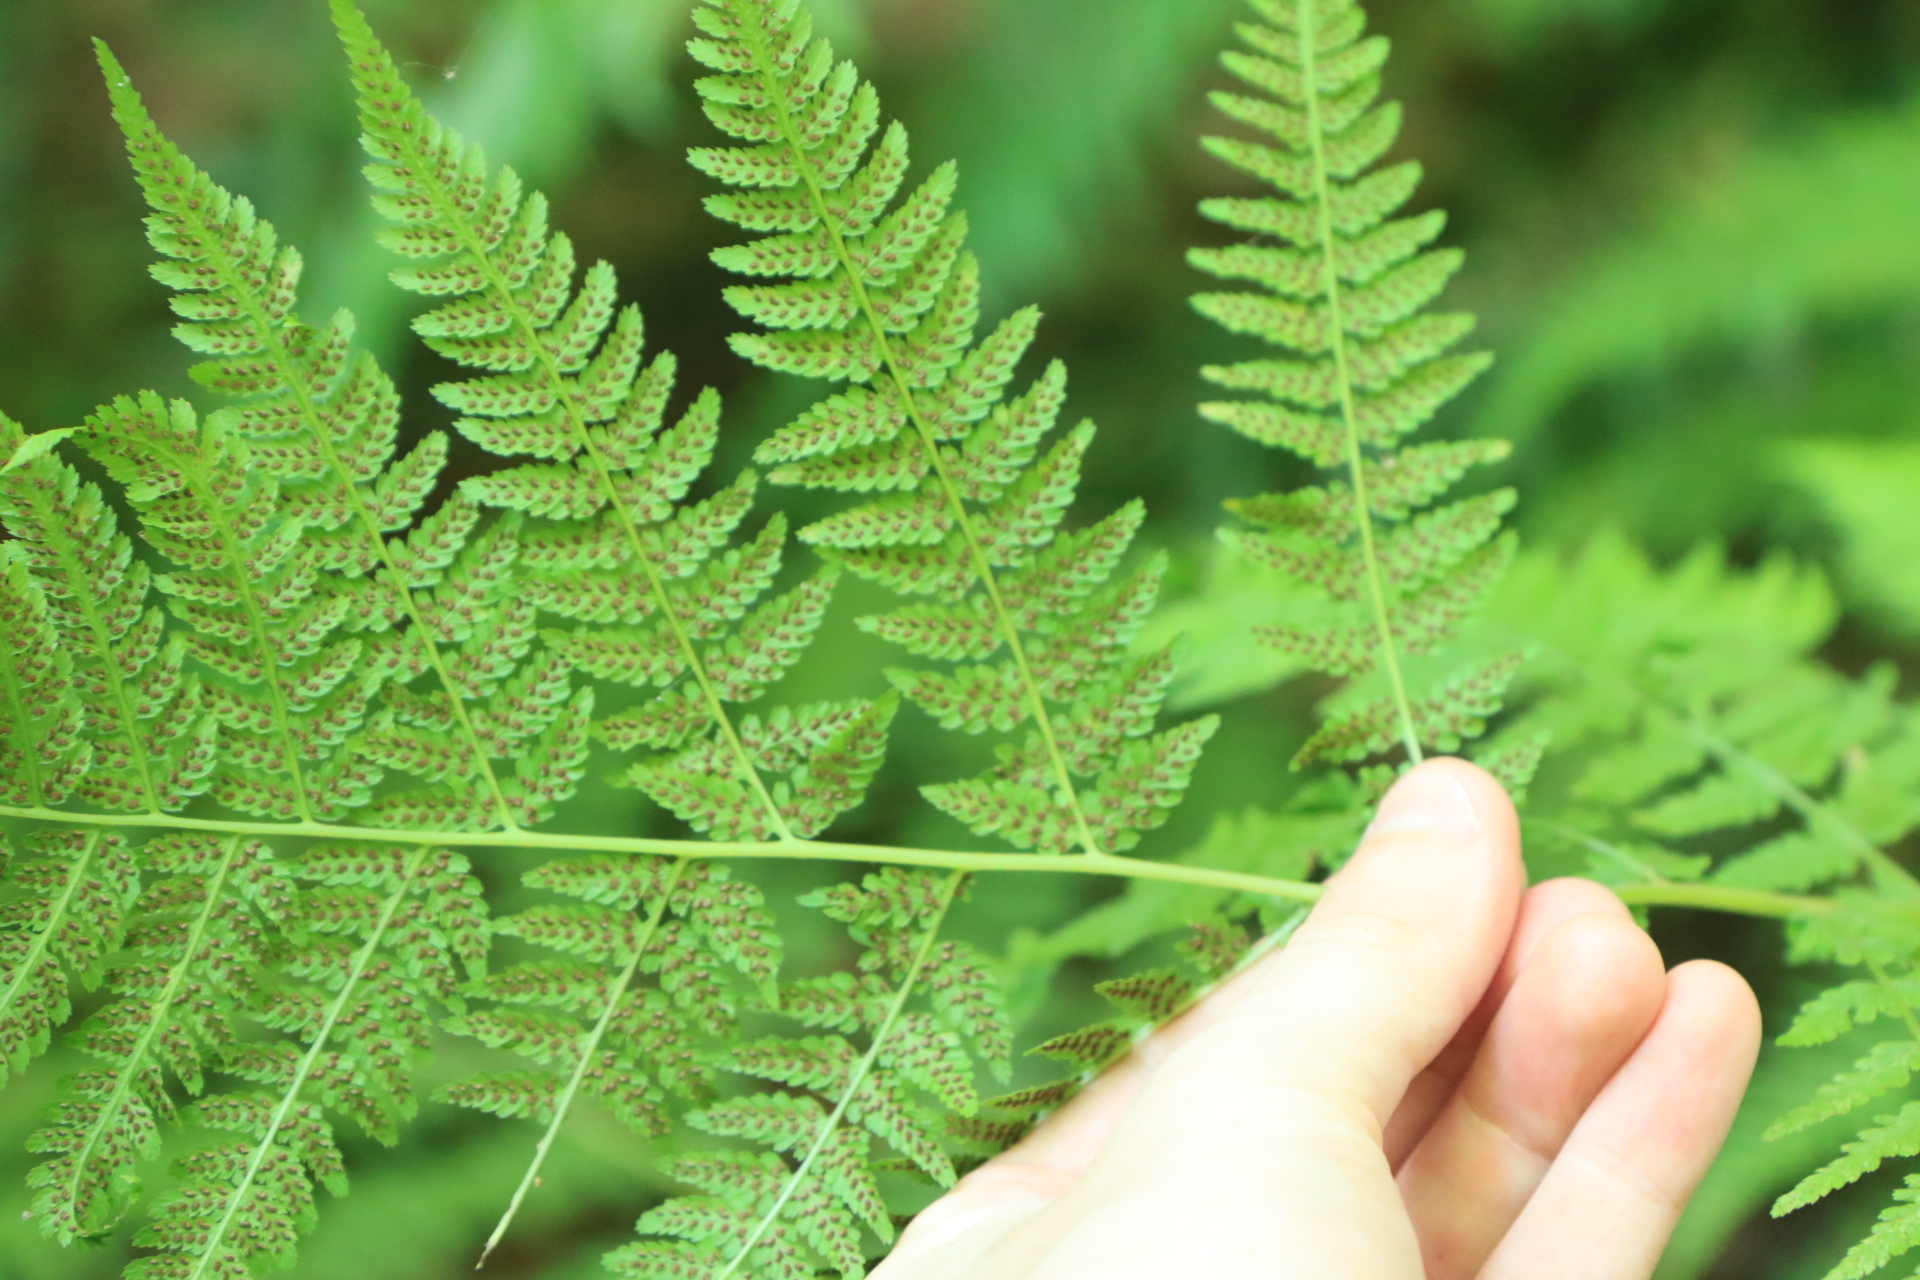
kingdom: Plantae
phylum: Tracheophyta
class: Polypodiopsida
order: Polypodiales
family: Athyriaceae
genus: Athyrium
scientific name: Athyrium filix-femina
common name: Lady fern
